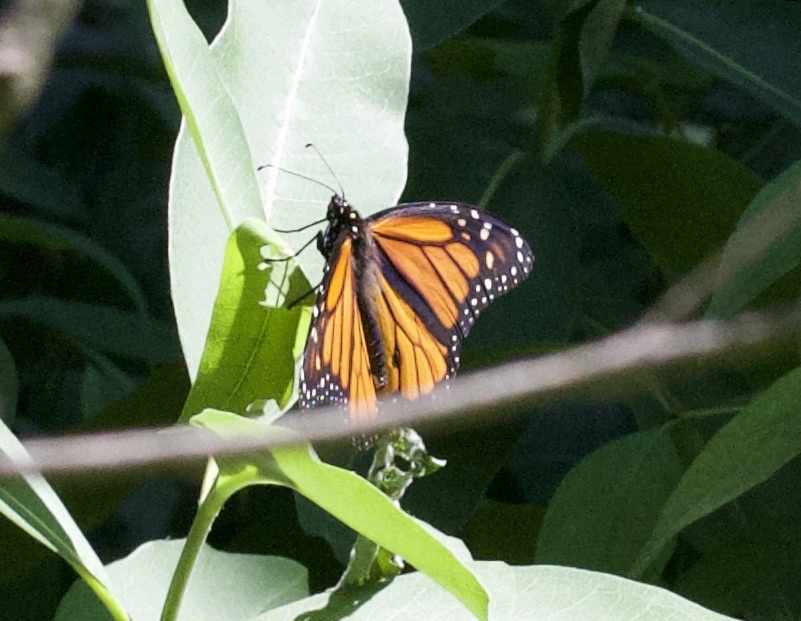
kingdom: Animalia
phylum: Arthropoda
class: Insecta
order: Lepidoptera
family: Nymphalidae
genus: Danaus
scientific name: Danaus plexippus
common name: Monarch
